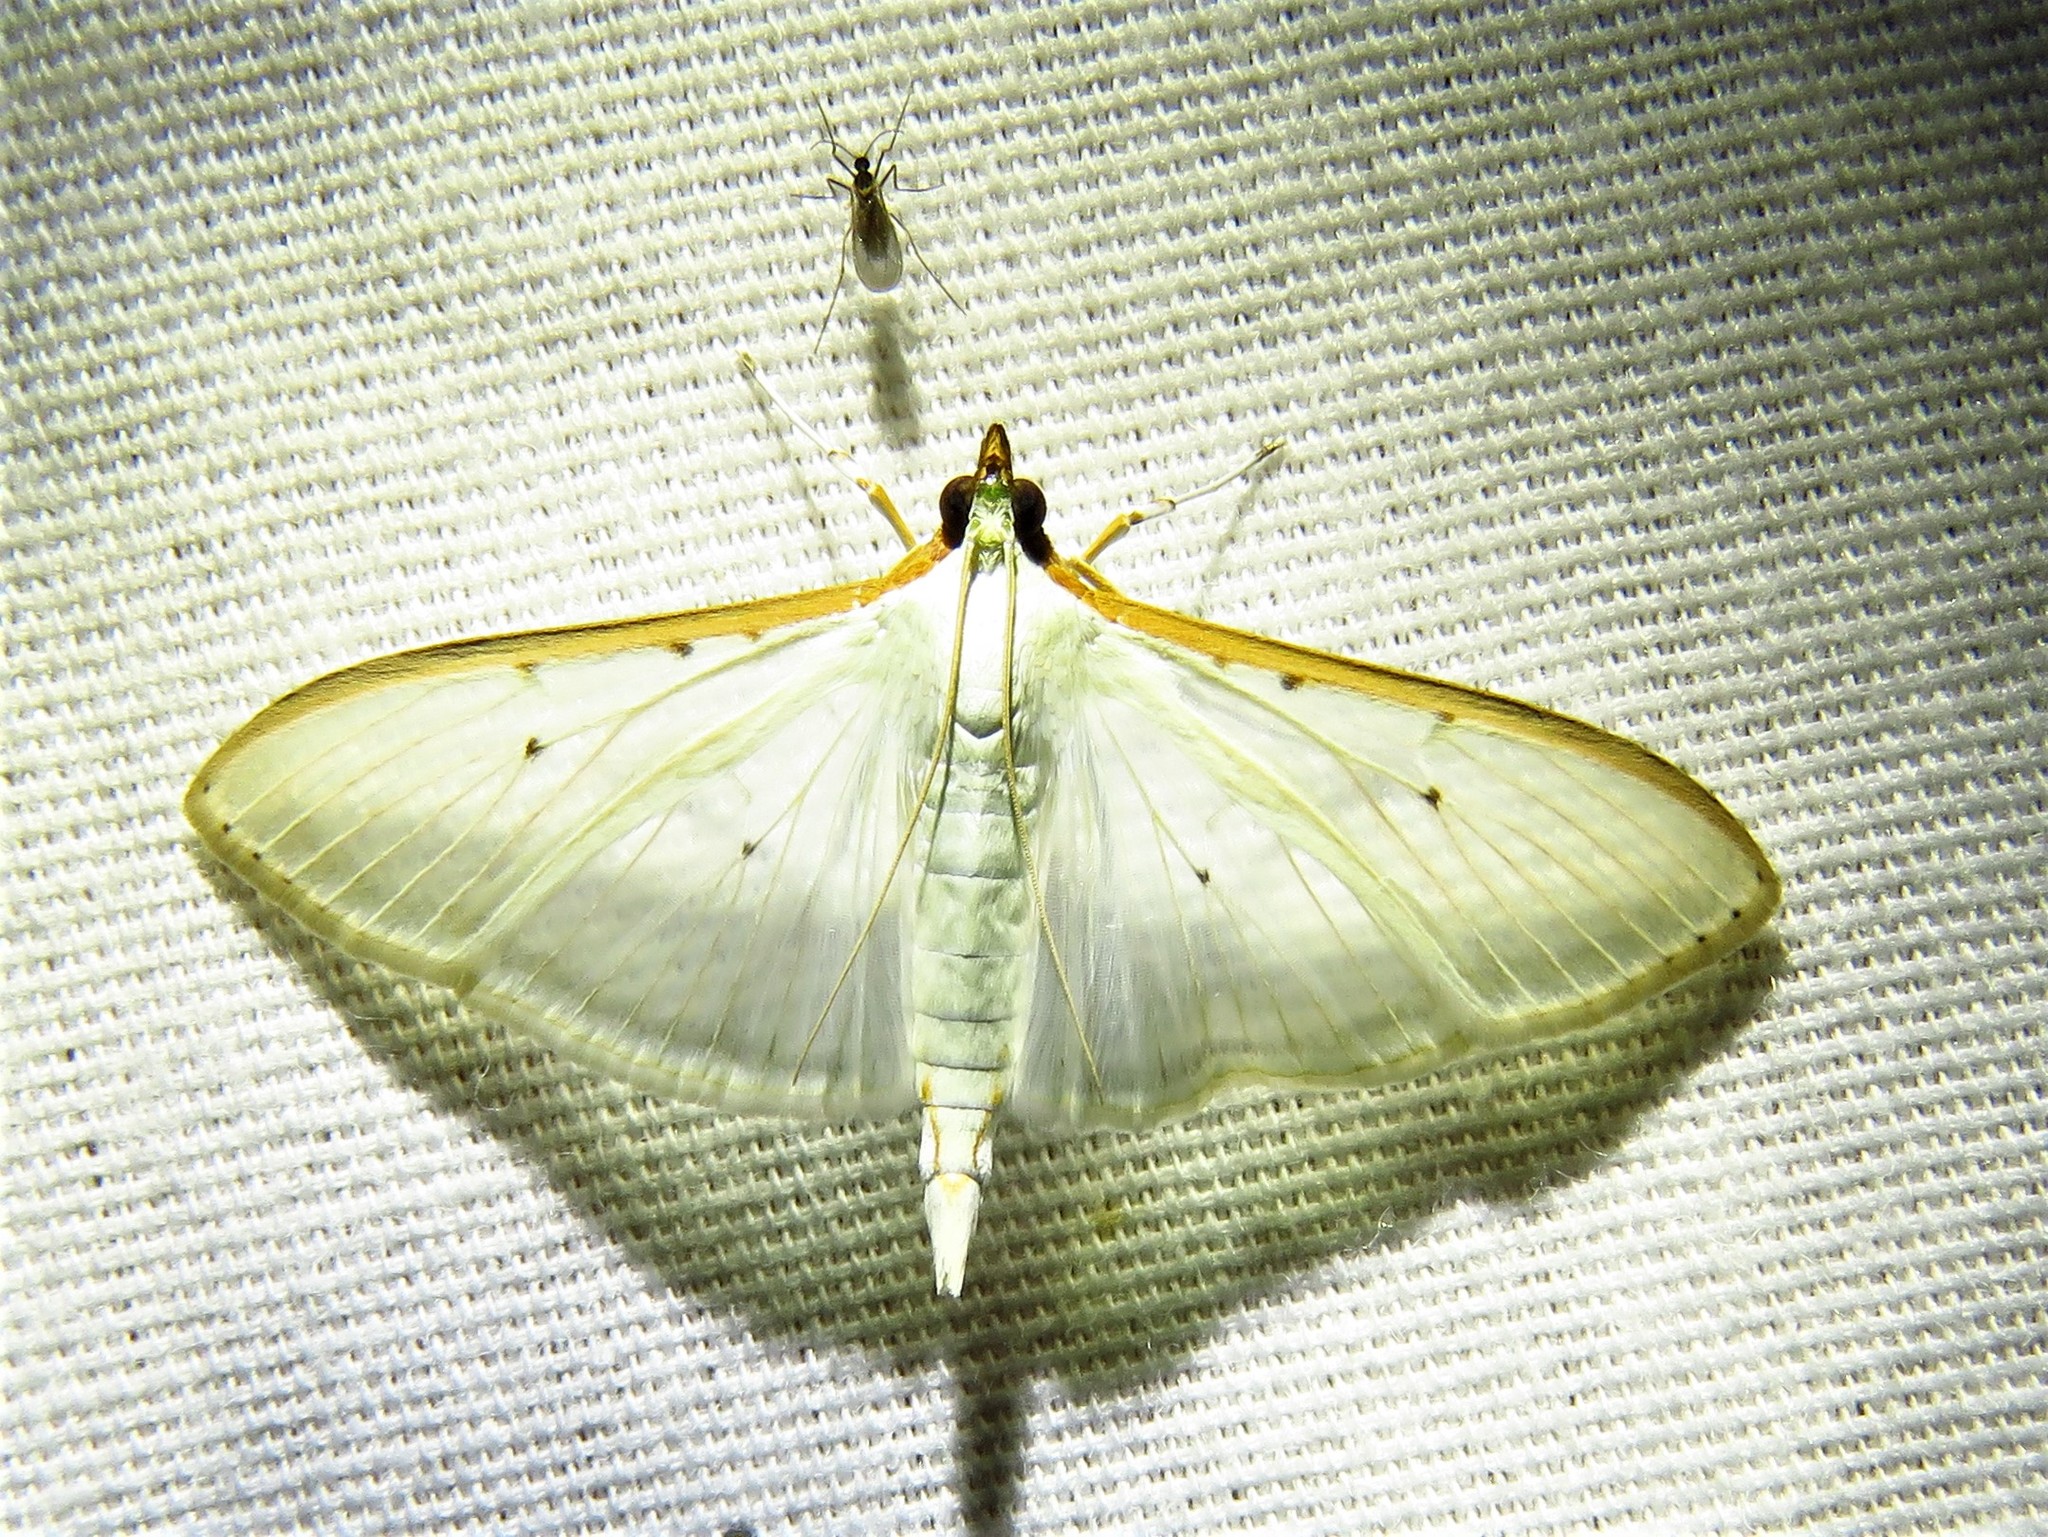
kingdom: Animalia
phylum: Arthropoda
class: Insecta
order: Lepidoptera
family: Crambidae
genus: Palpita
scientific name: Palpita quadristigmalis
